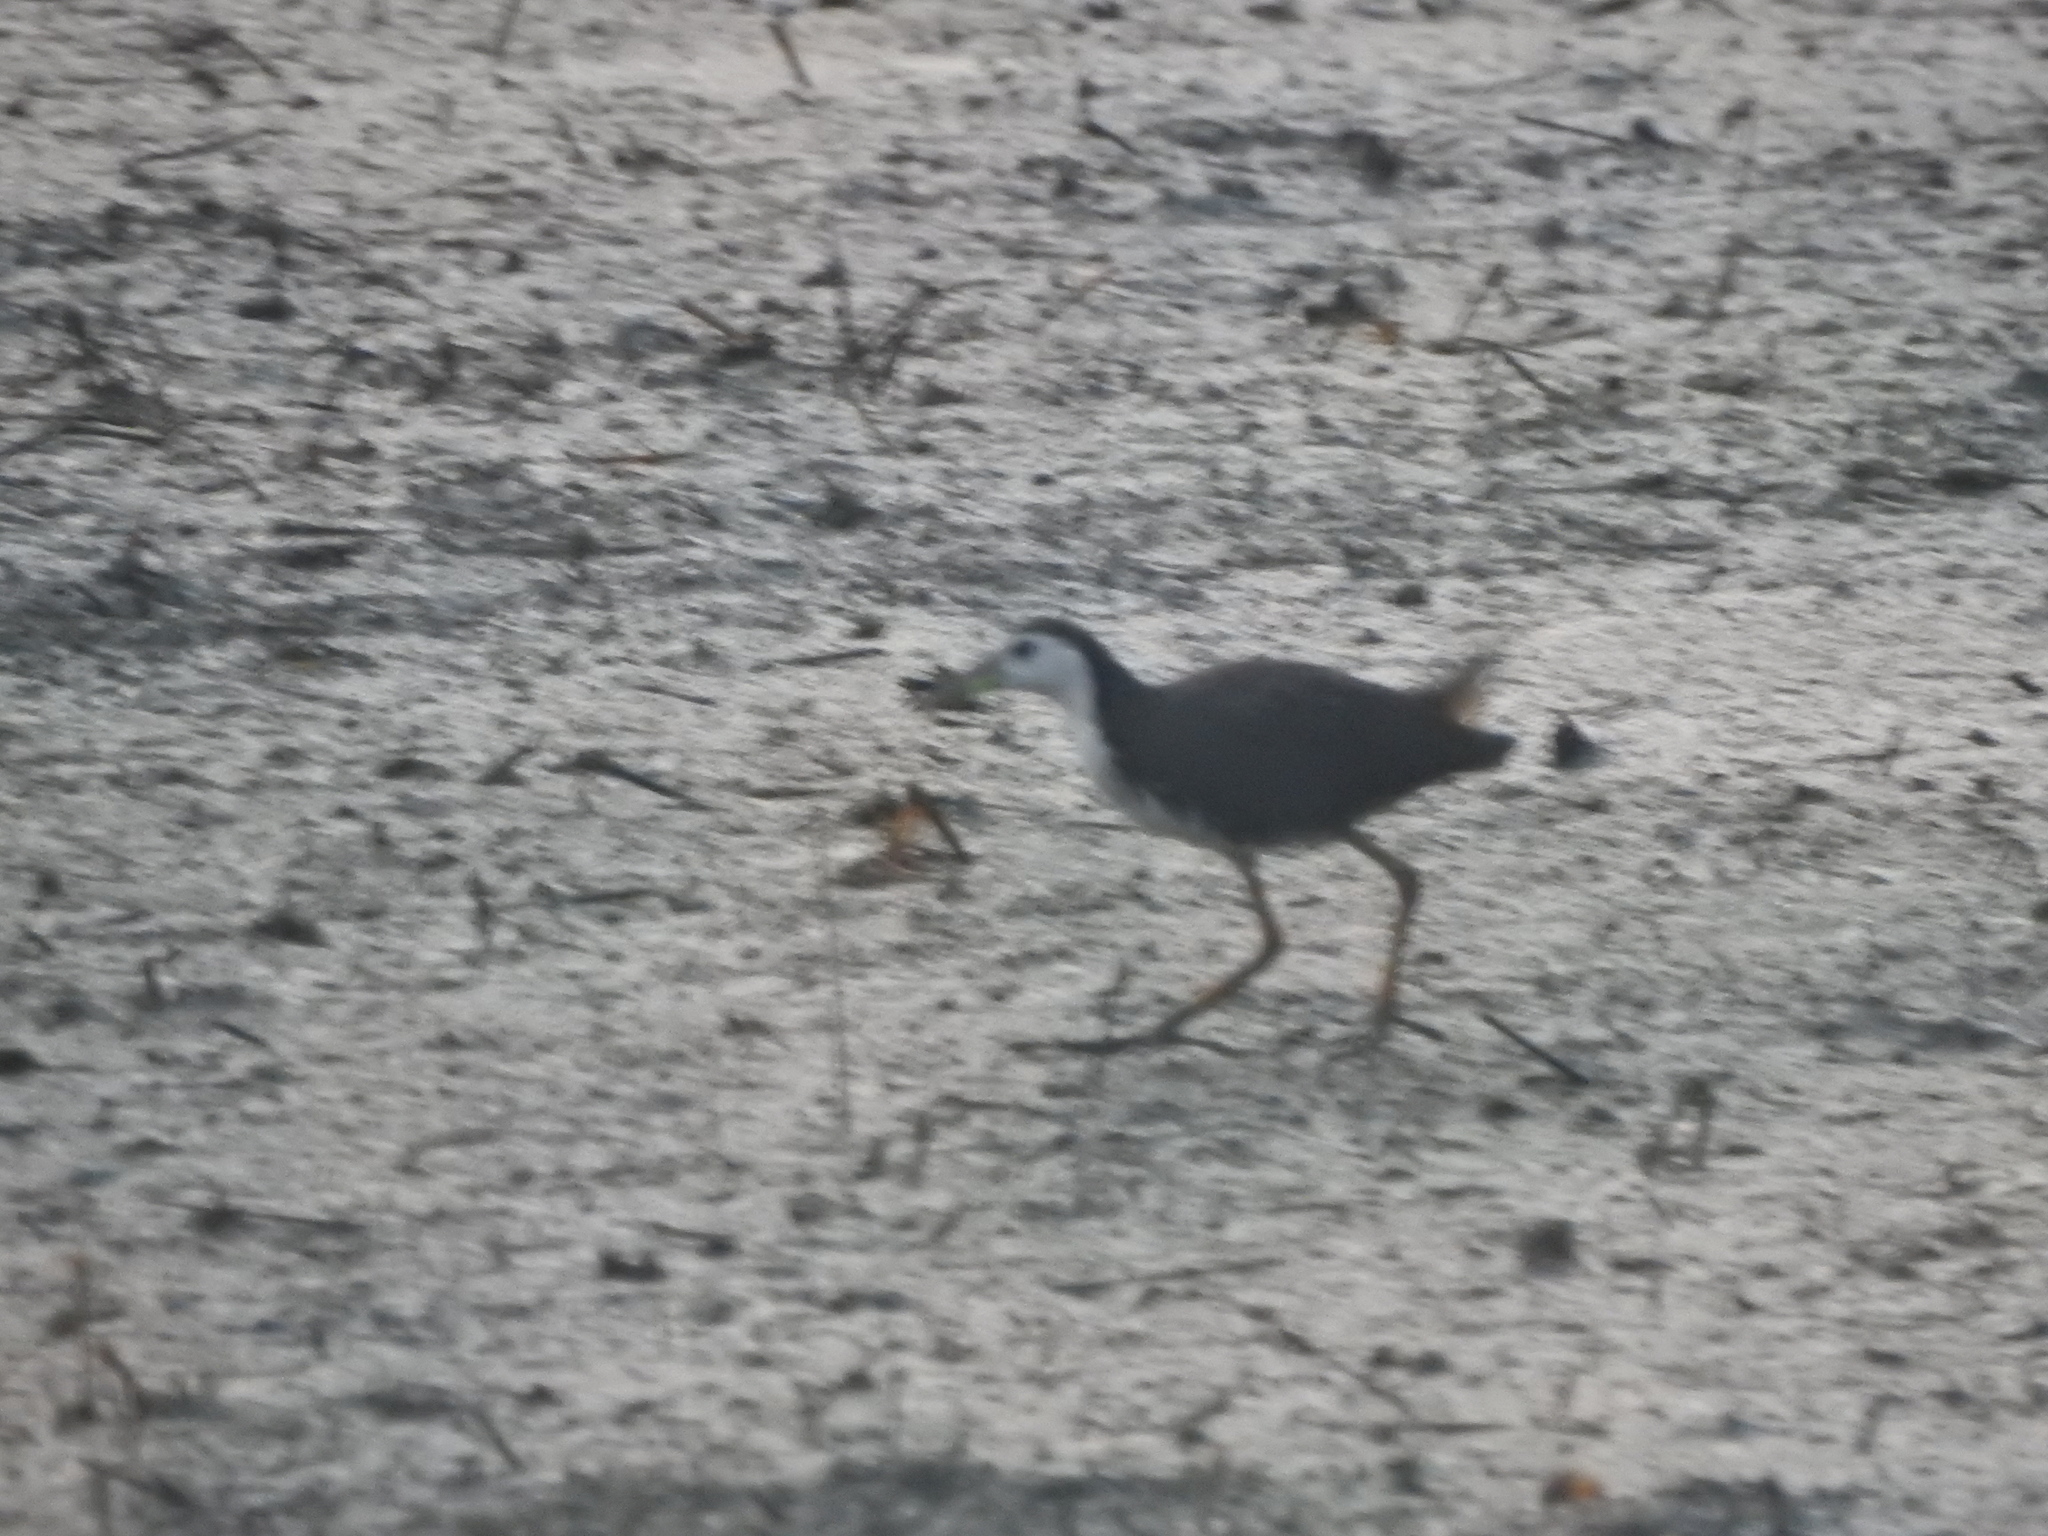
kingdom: Animalia
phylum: Chordata
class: Aves
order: Gruiformes
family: Rallidae
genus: Amaurornis
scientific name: Amaurornis phoenicurus
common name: White-breasted waterhen
